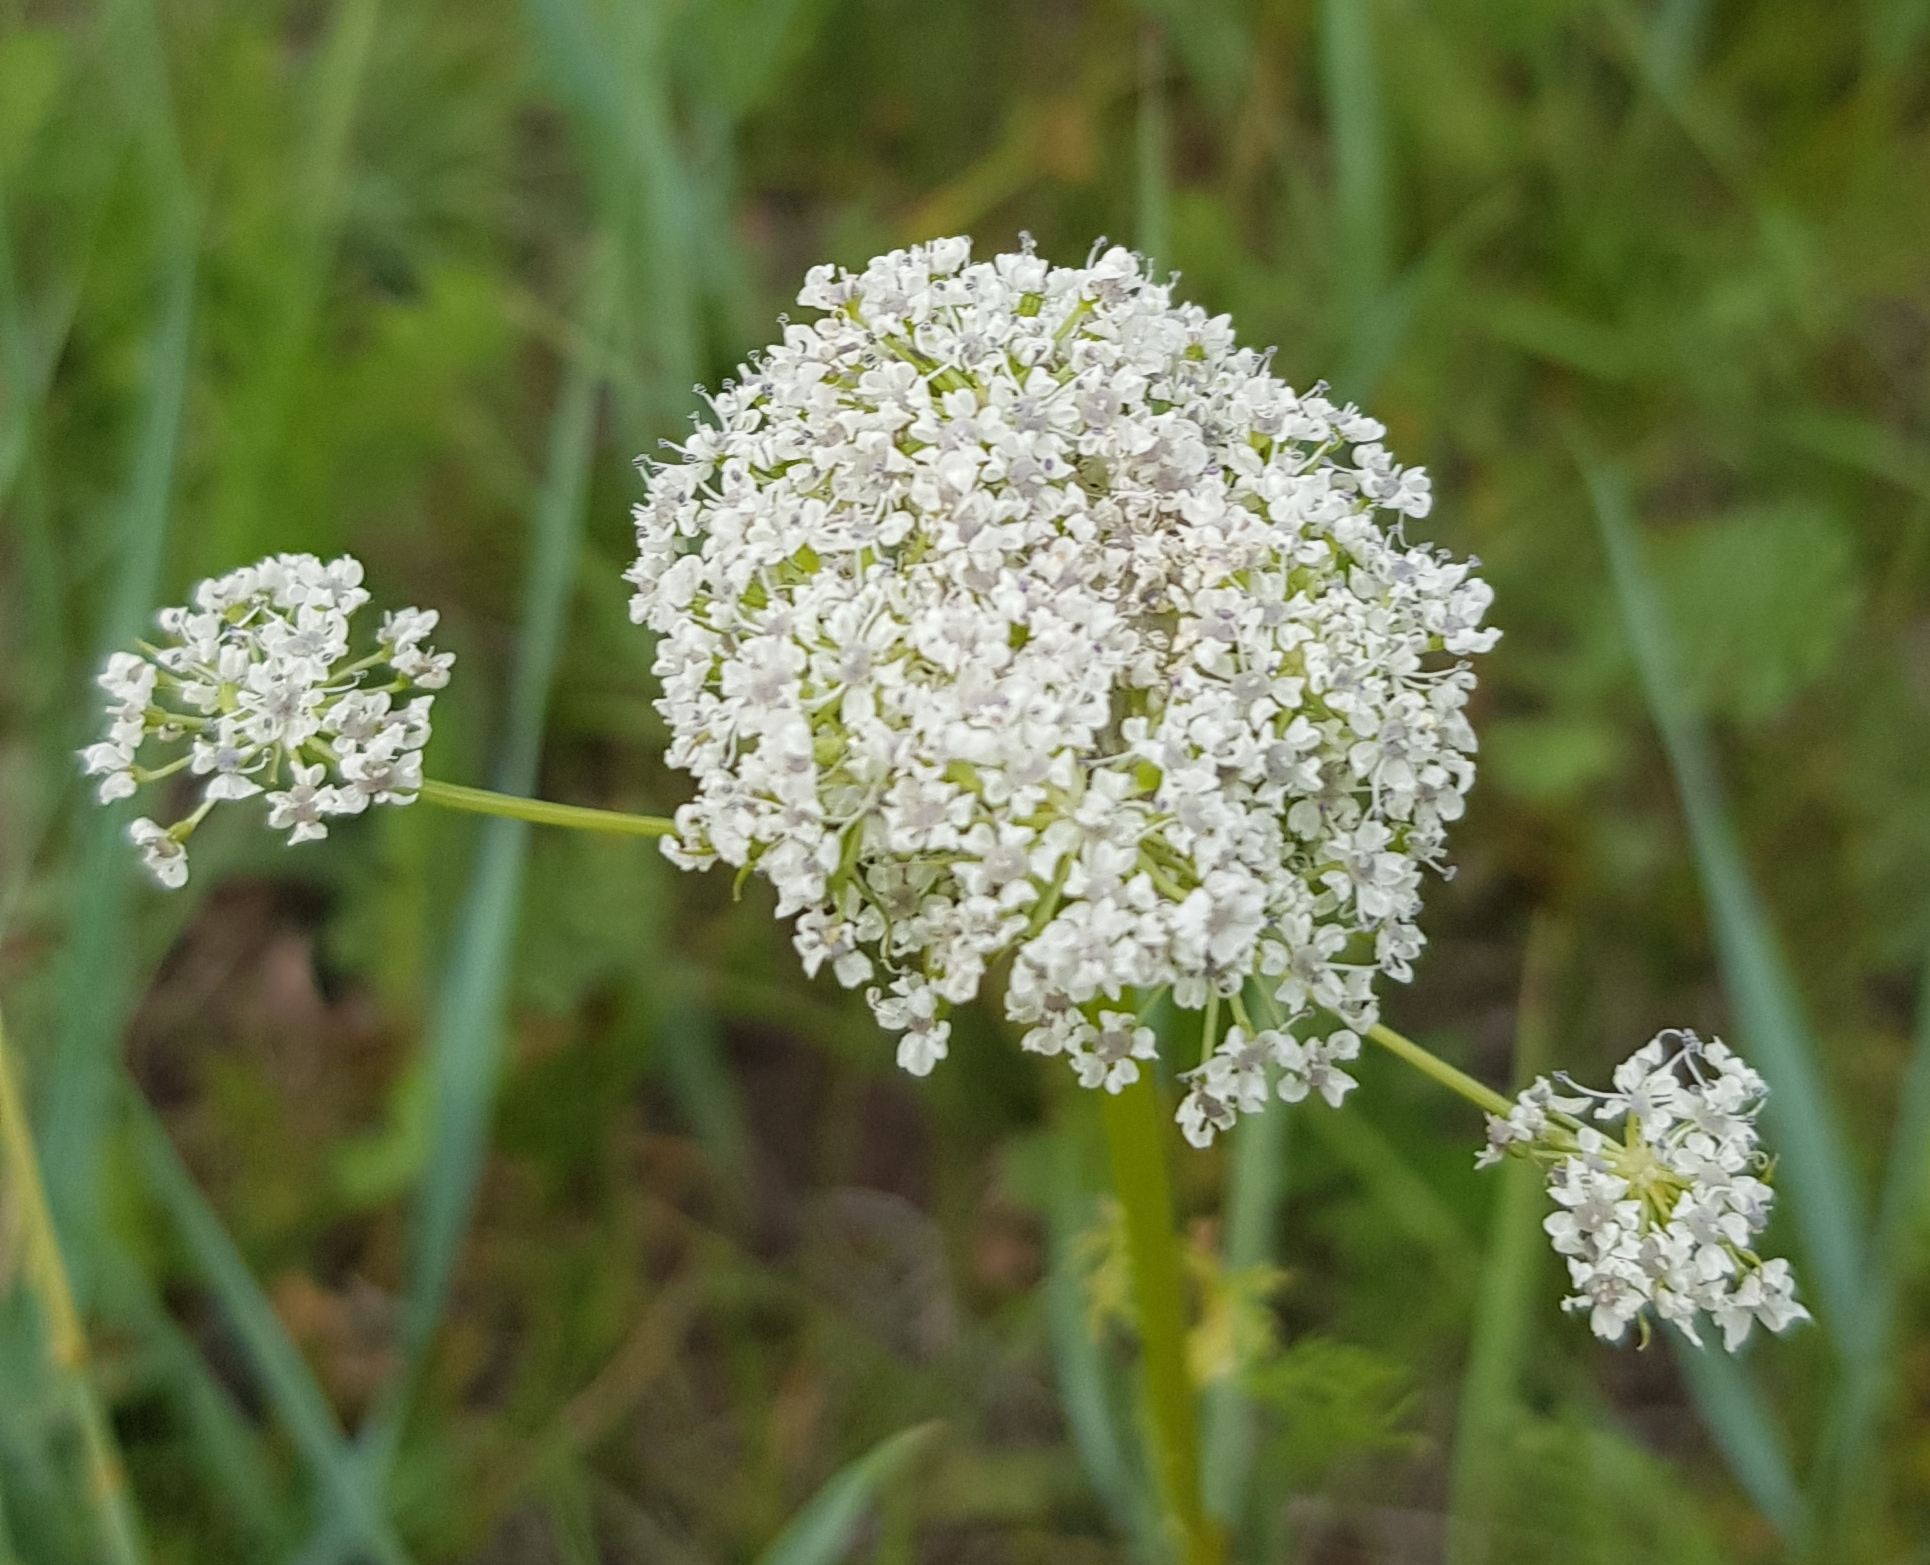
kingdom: Plantae
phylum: Tracheophyta
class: Magnoliopsida
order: Apiales
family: Apiaceae
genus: Carum
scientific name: Carum buriaticum
